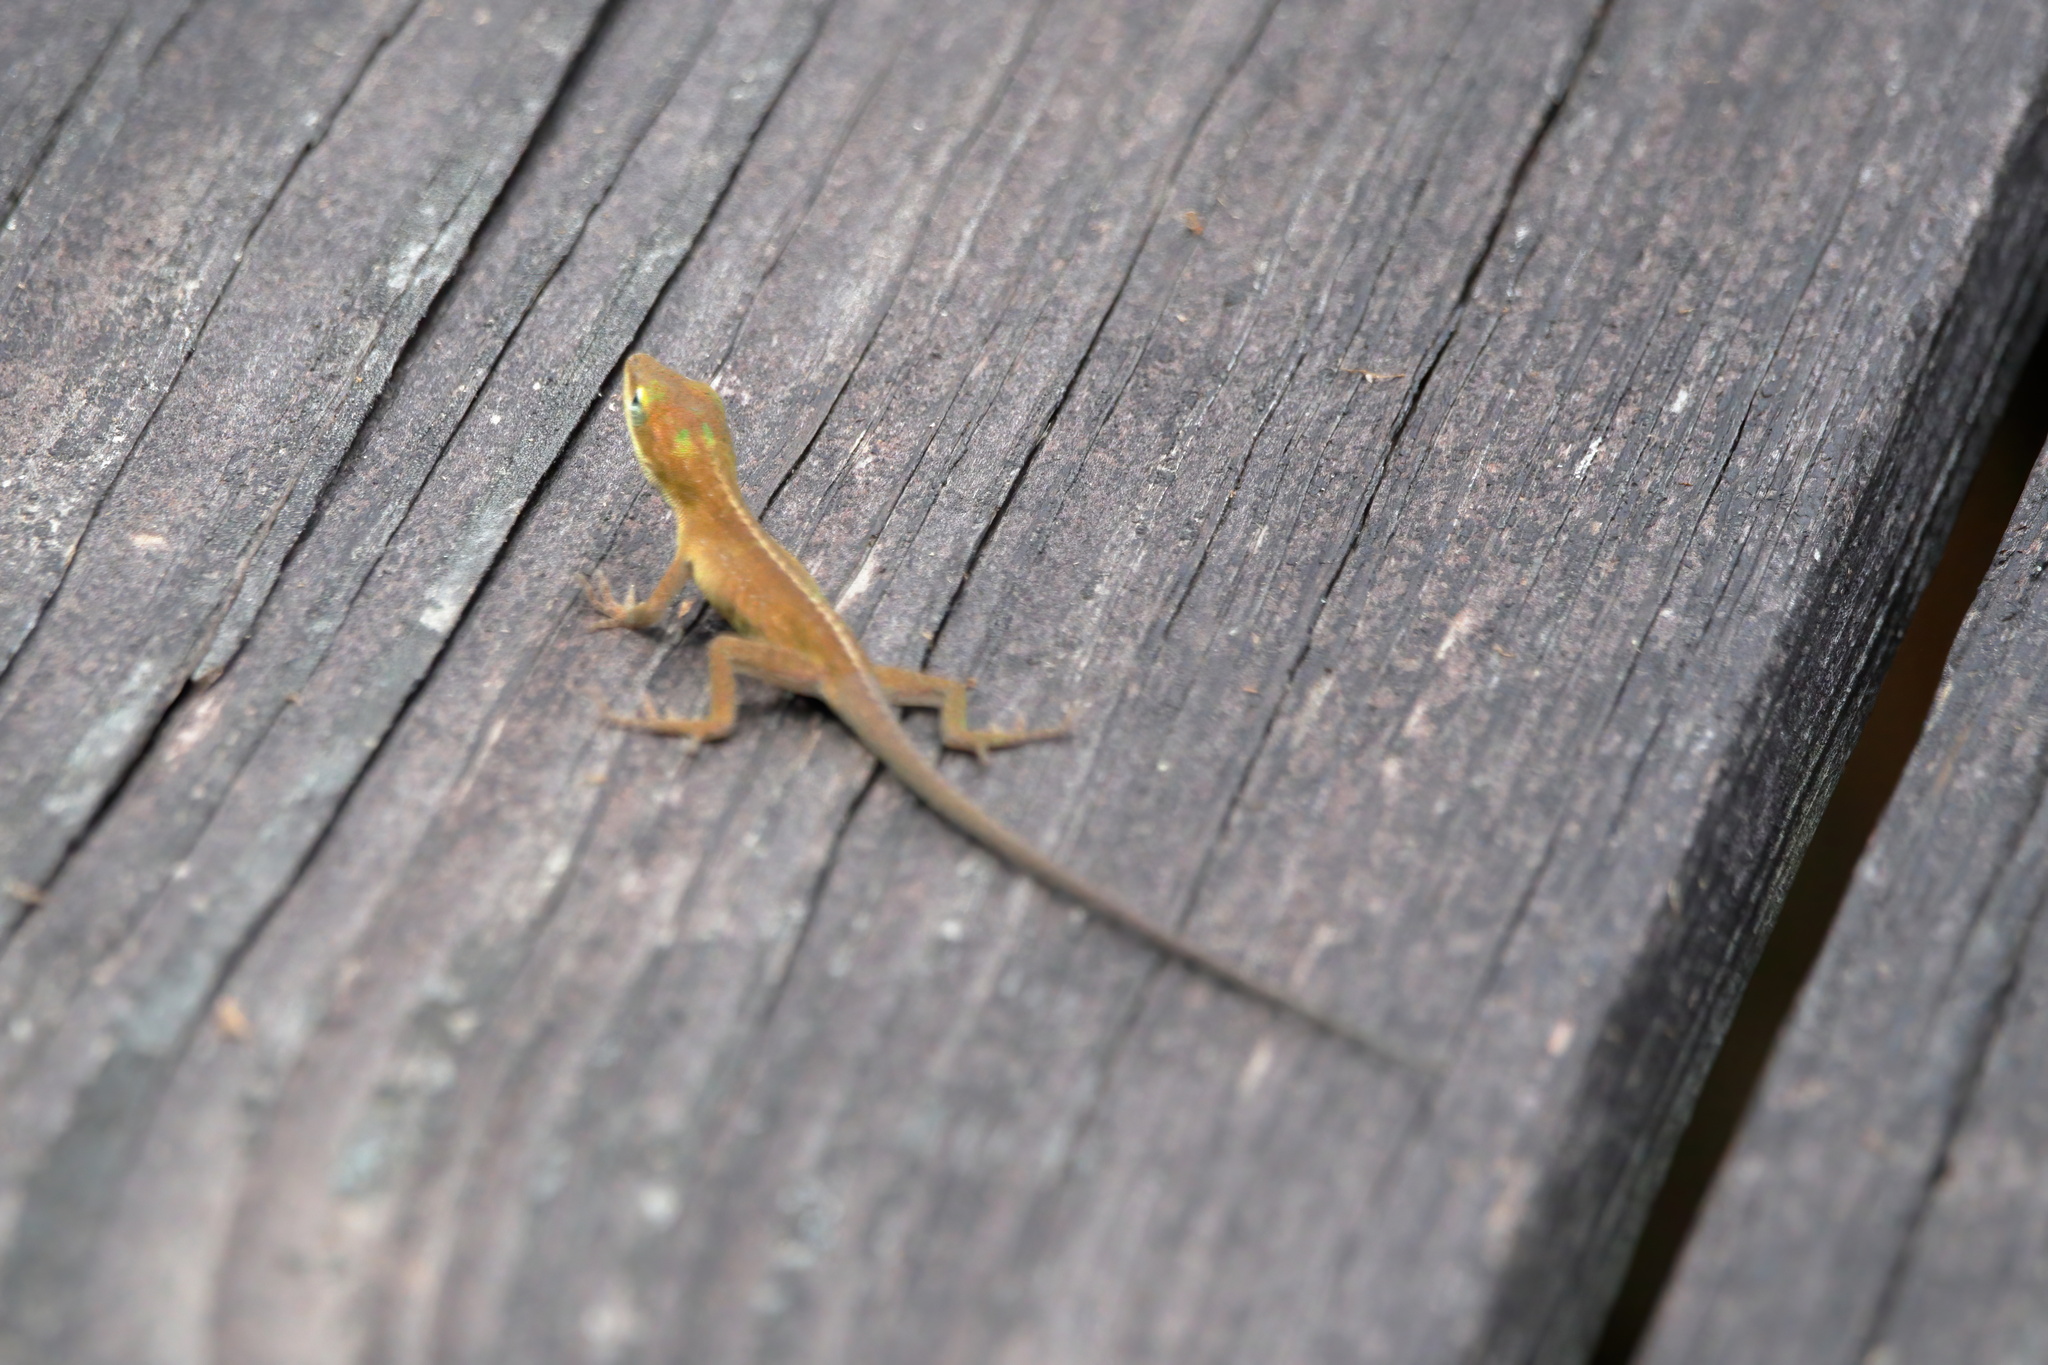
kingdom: Animalia
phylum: Chordata
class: Squamata
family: Dactyloidae
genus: Anolis
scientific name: Anolis carolinensis
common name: Green anole
